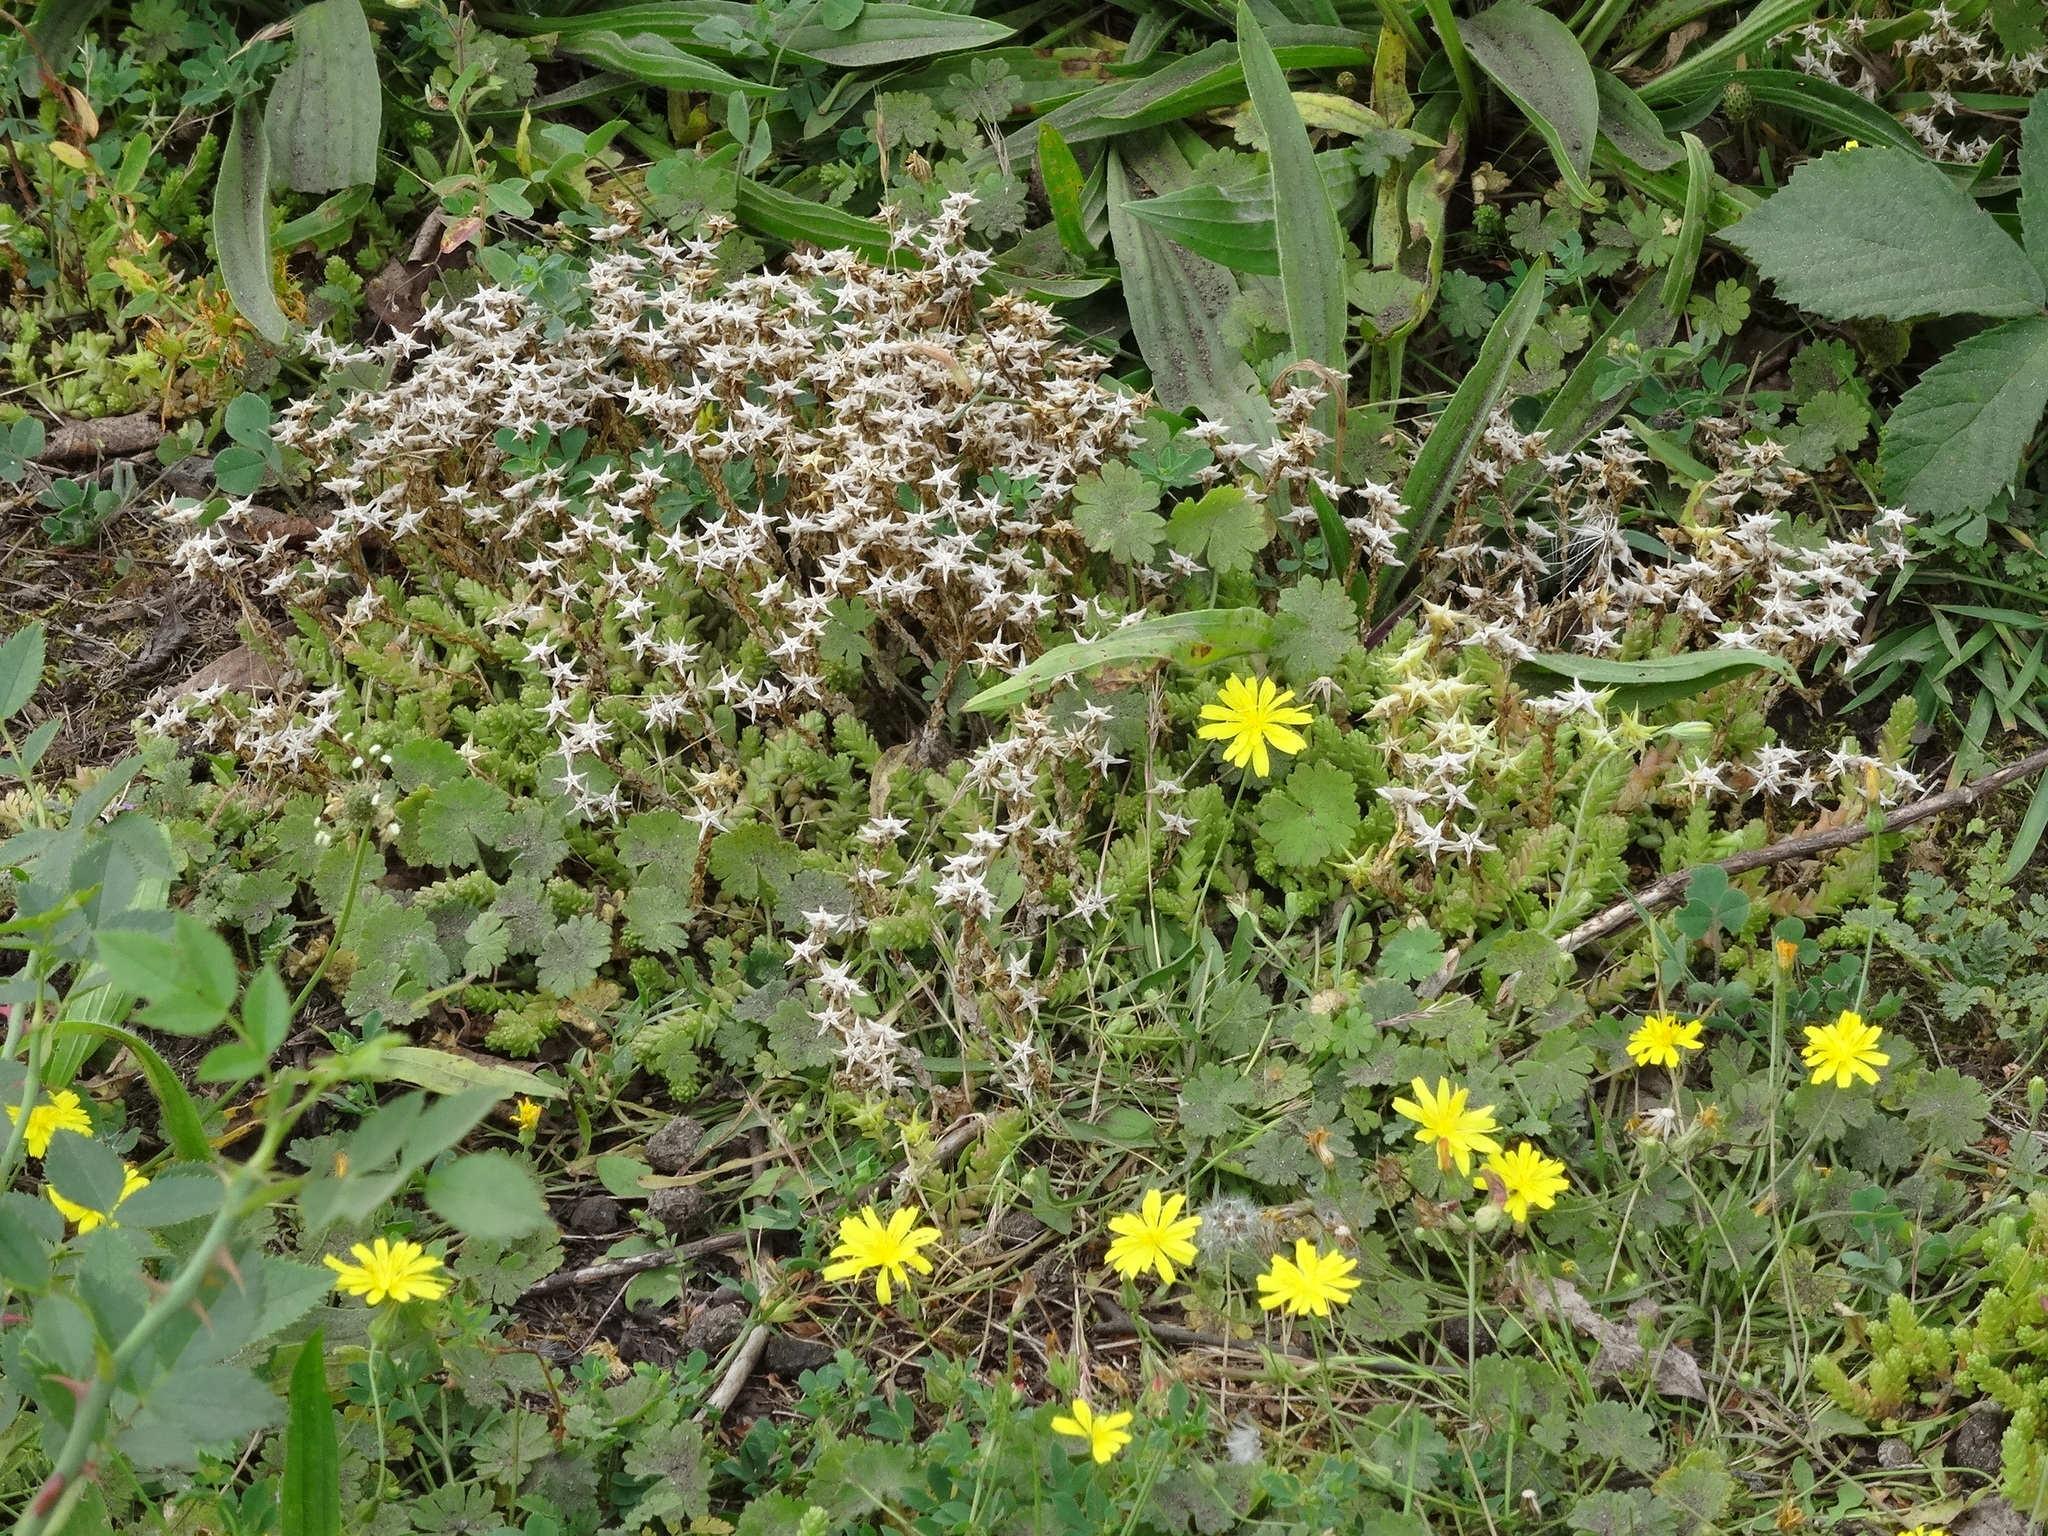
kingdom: Plantae
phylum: Tracheophyta
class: Magnoliopsida
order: Saxifragales
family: Crassulaceae
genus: Sedum
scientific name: Sedum acre
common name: Biting stonecrop
